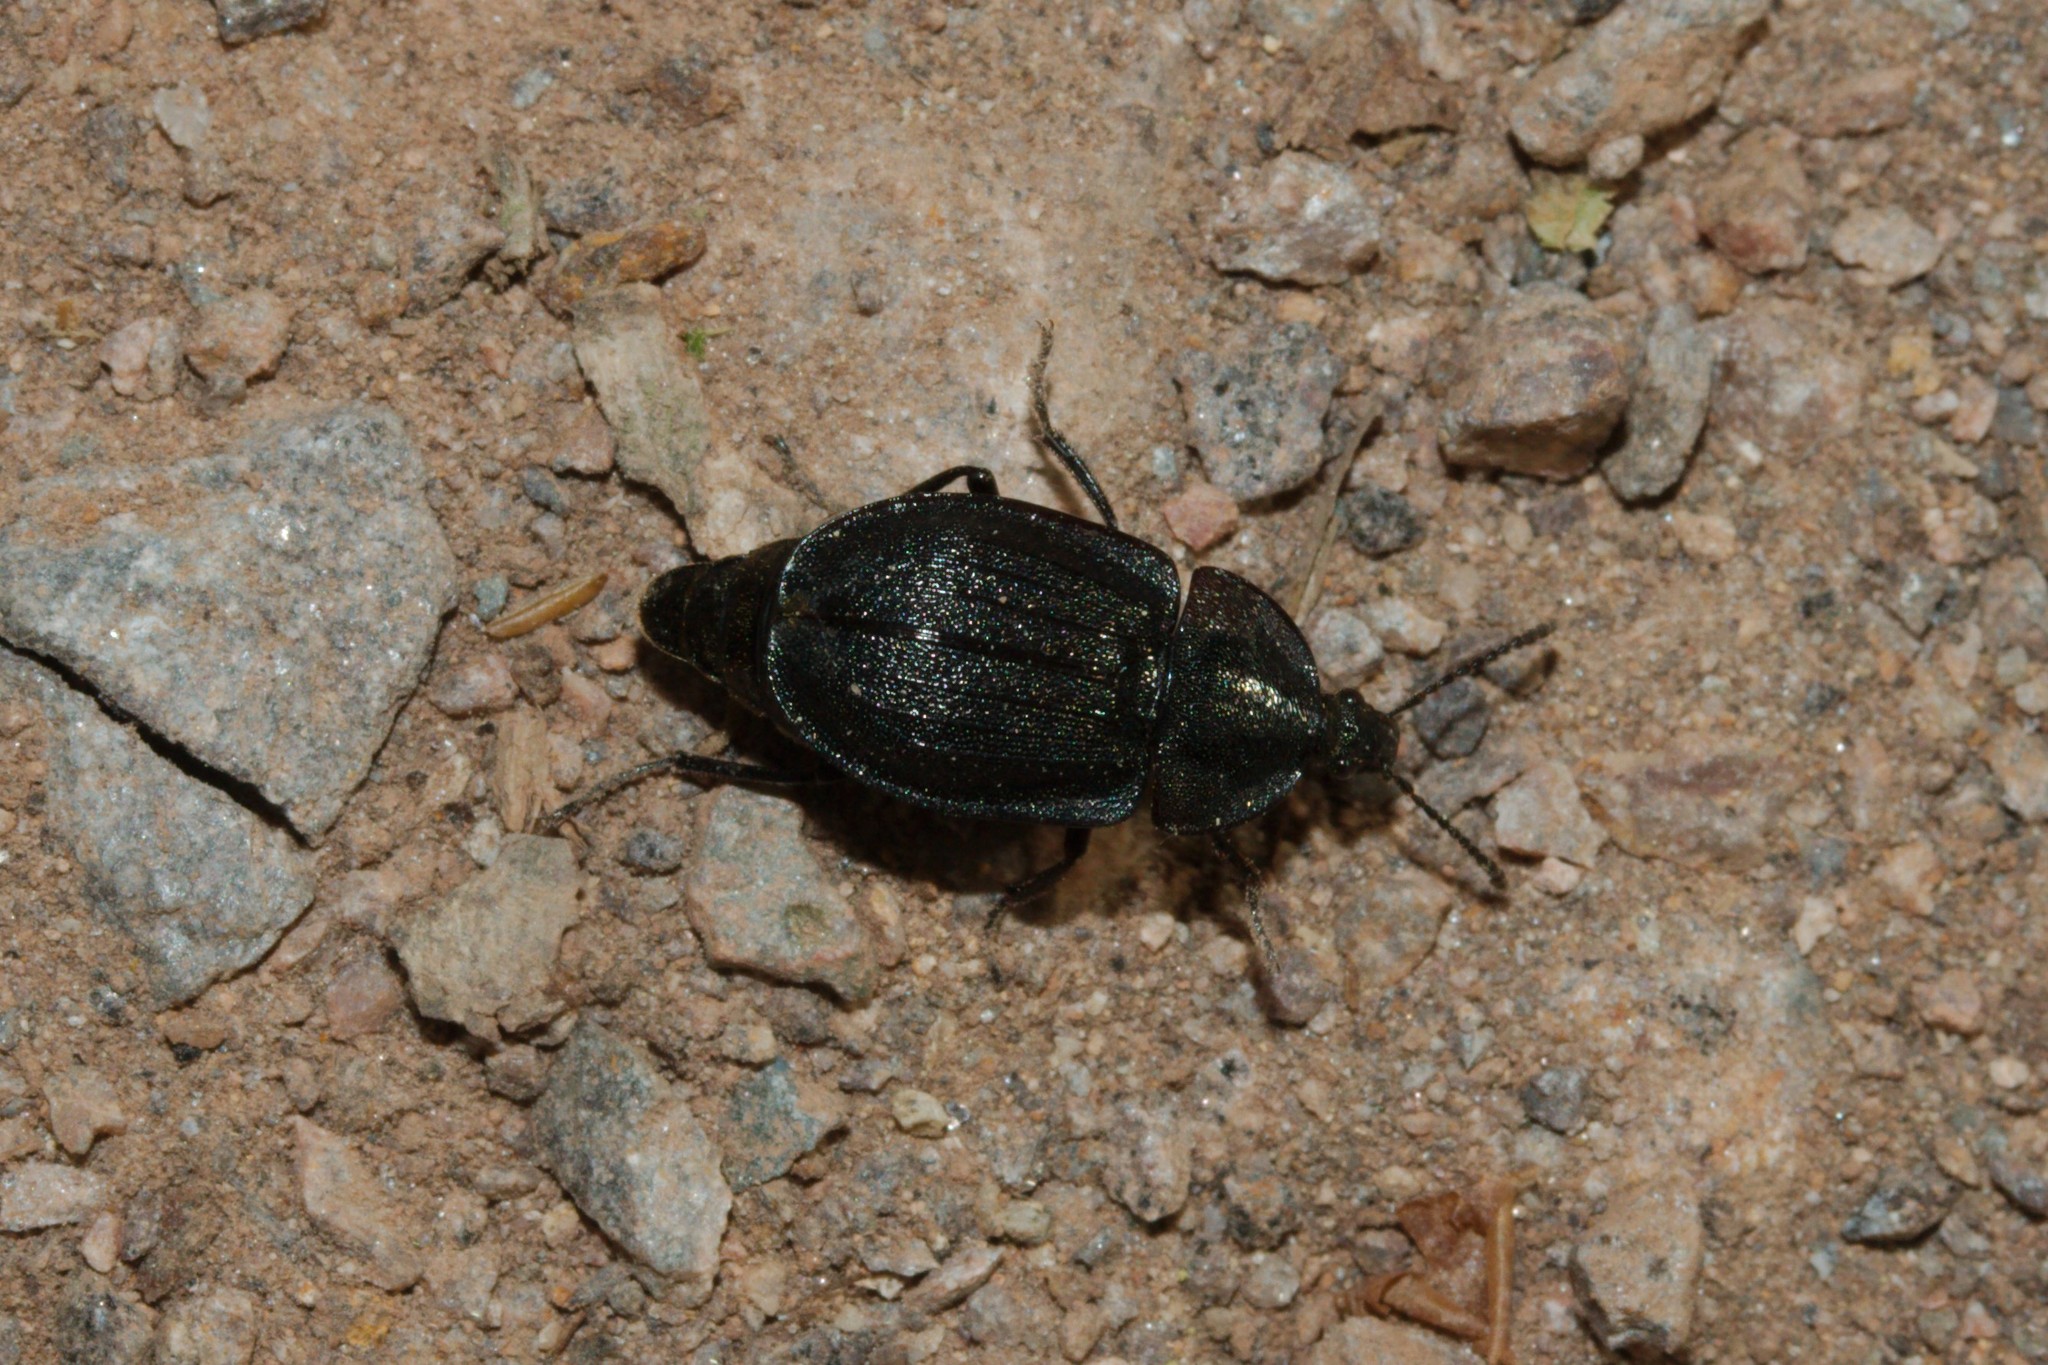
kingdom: Animalia
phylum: Arthropoda
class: Insecta
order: Coleoptera
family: Staphylinidae
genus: Silpha
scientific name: Silpha atrata
